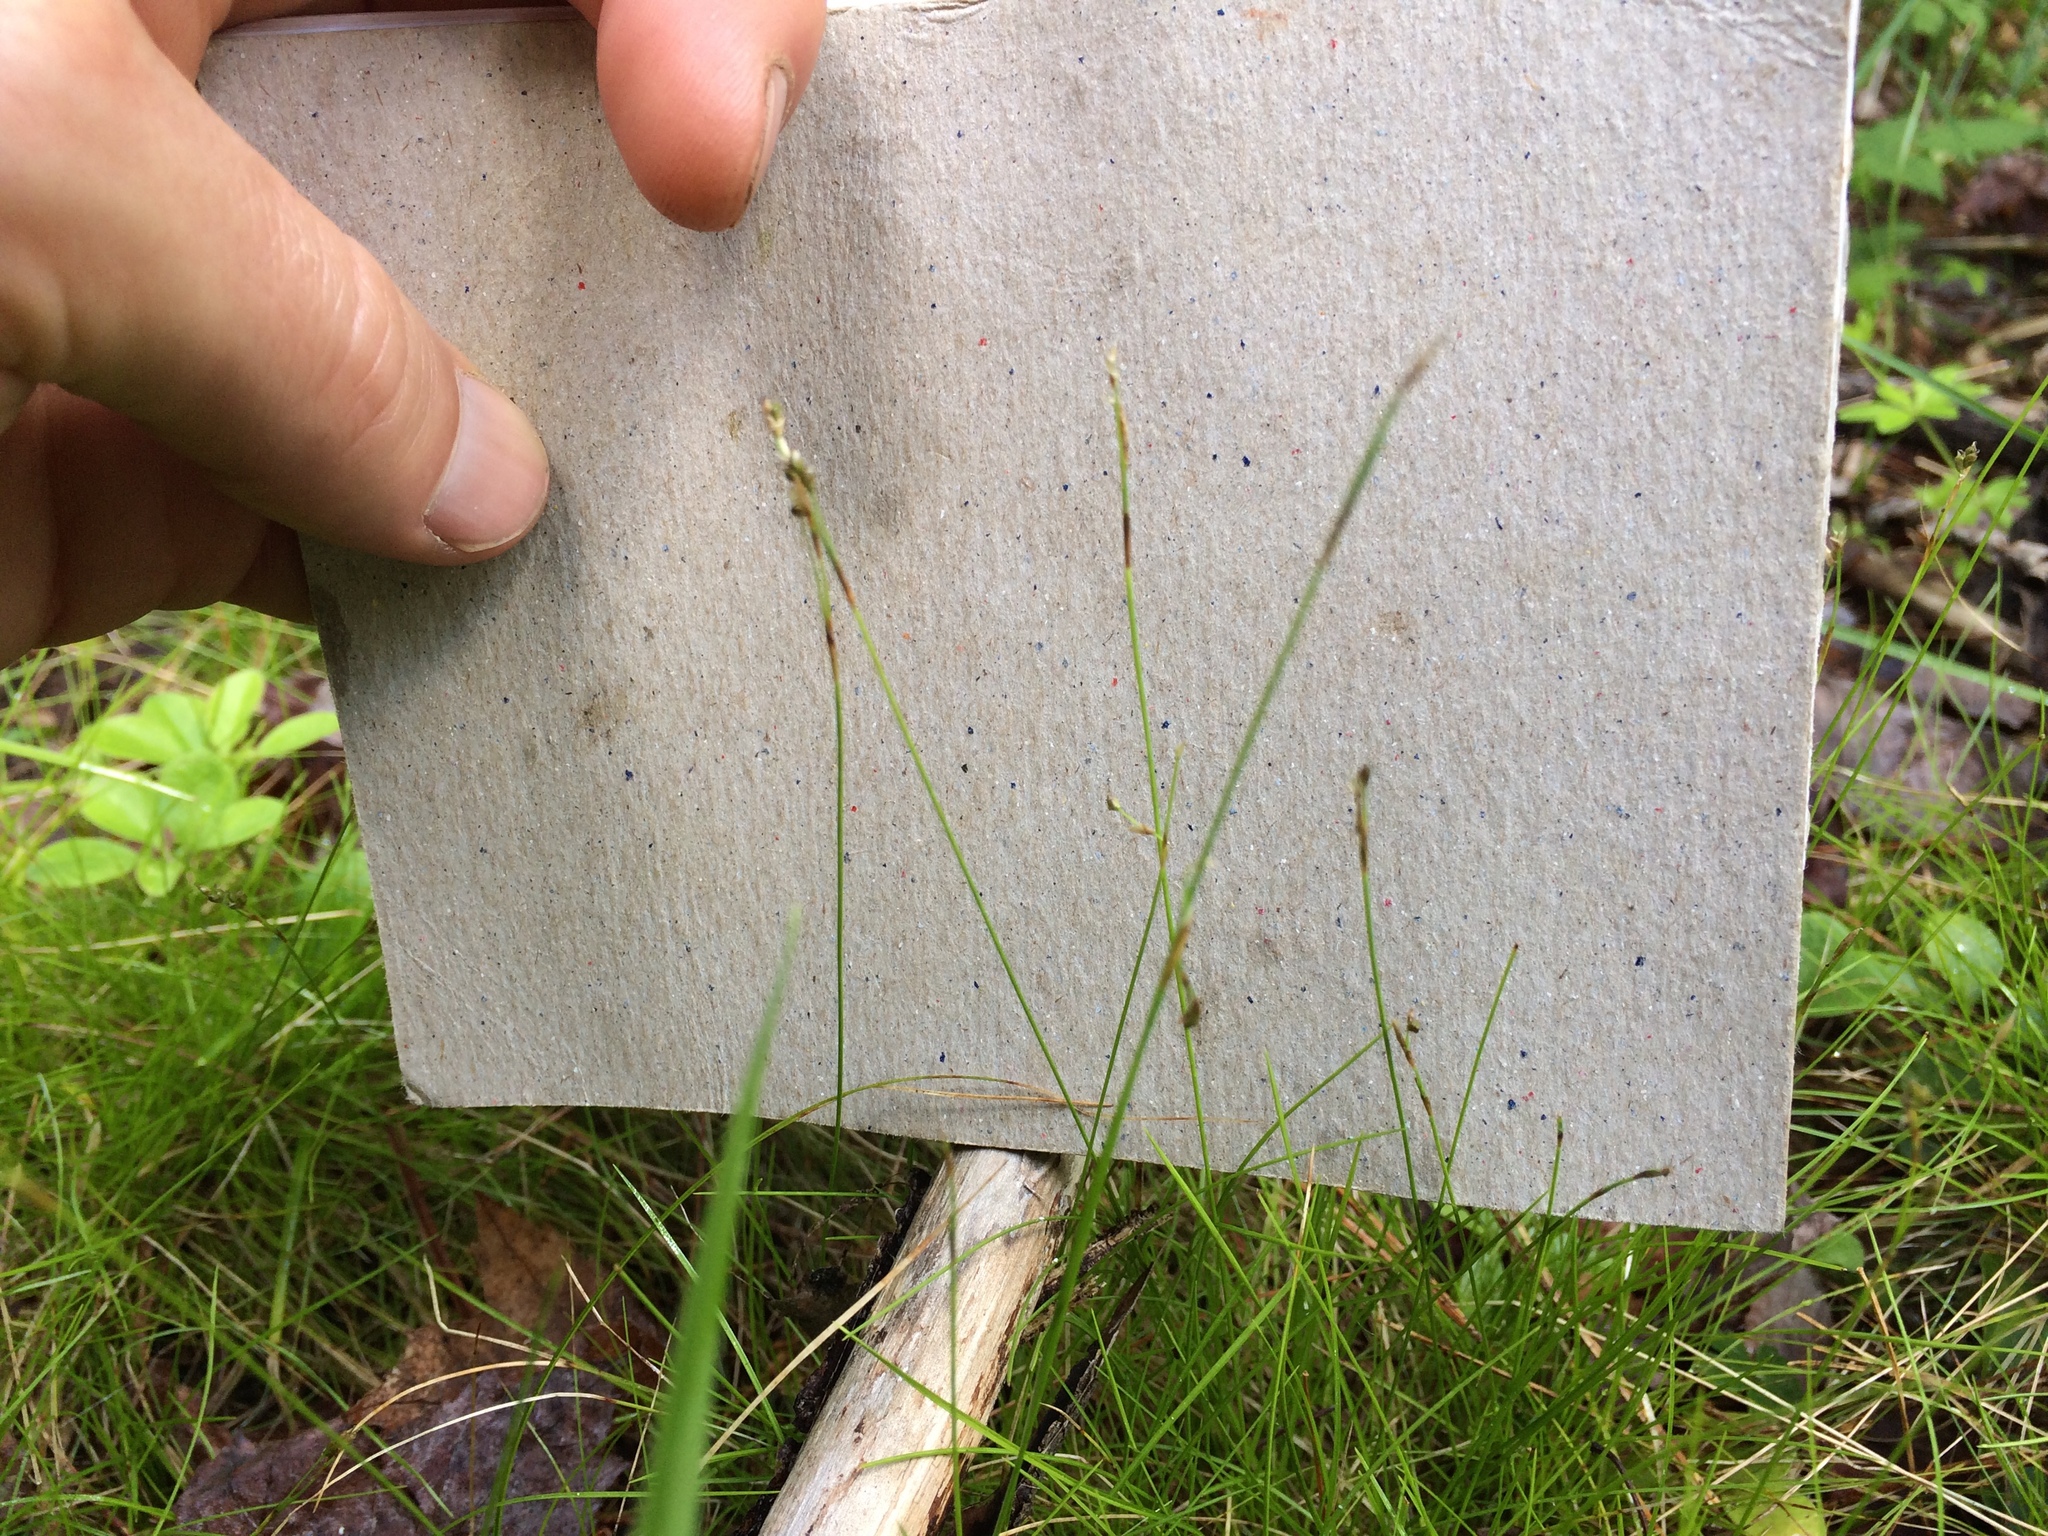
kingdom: Plantae
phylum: Tracheophyta
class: Liliopsida
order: Poales
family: Cyperaceae
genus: Carex
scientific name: Carex eburnea
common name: Bristle-leaved sedge
